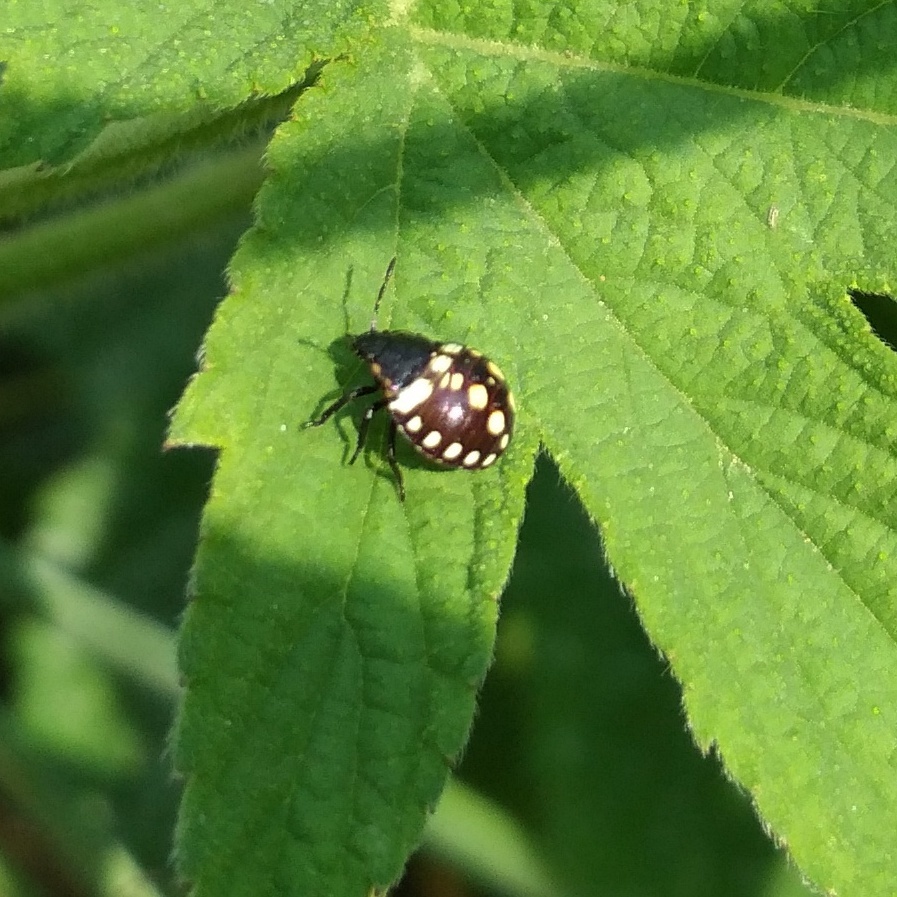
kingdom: Animalia
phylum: Arthropoda
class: Insecta
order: Hemiptera
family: Pentatomidae
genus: Nezara
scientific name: Nezara viridula
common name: Southern green stink bug
